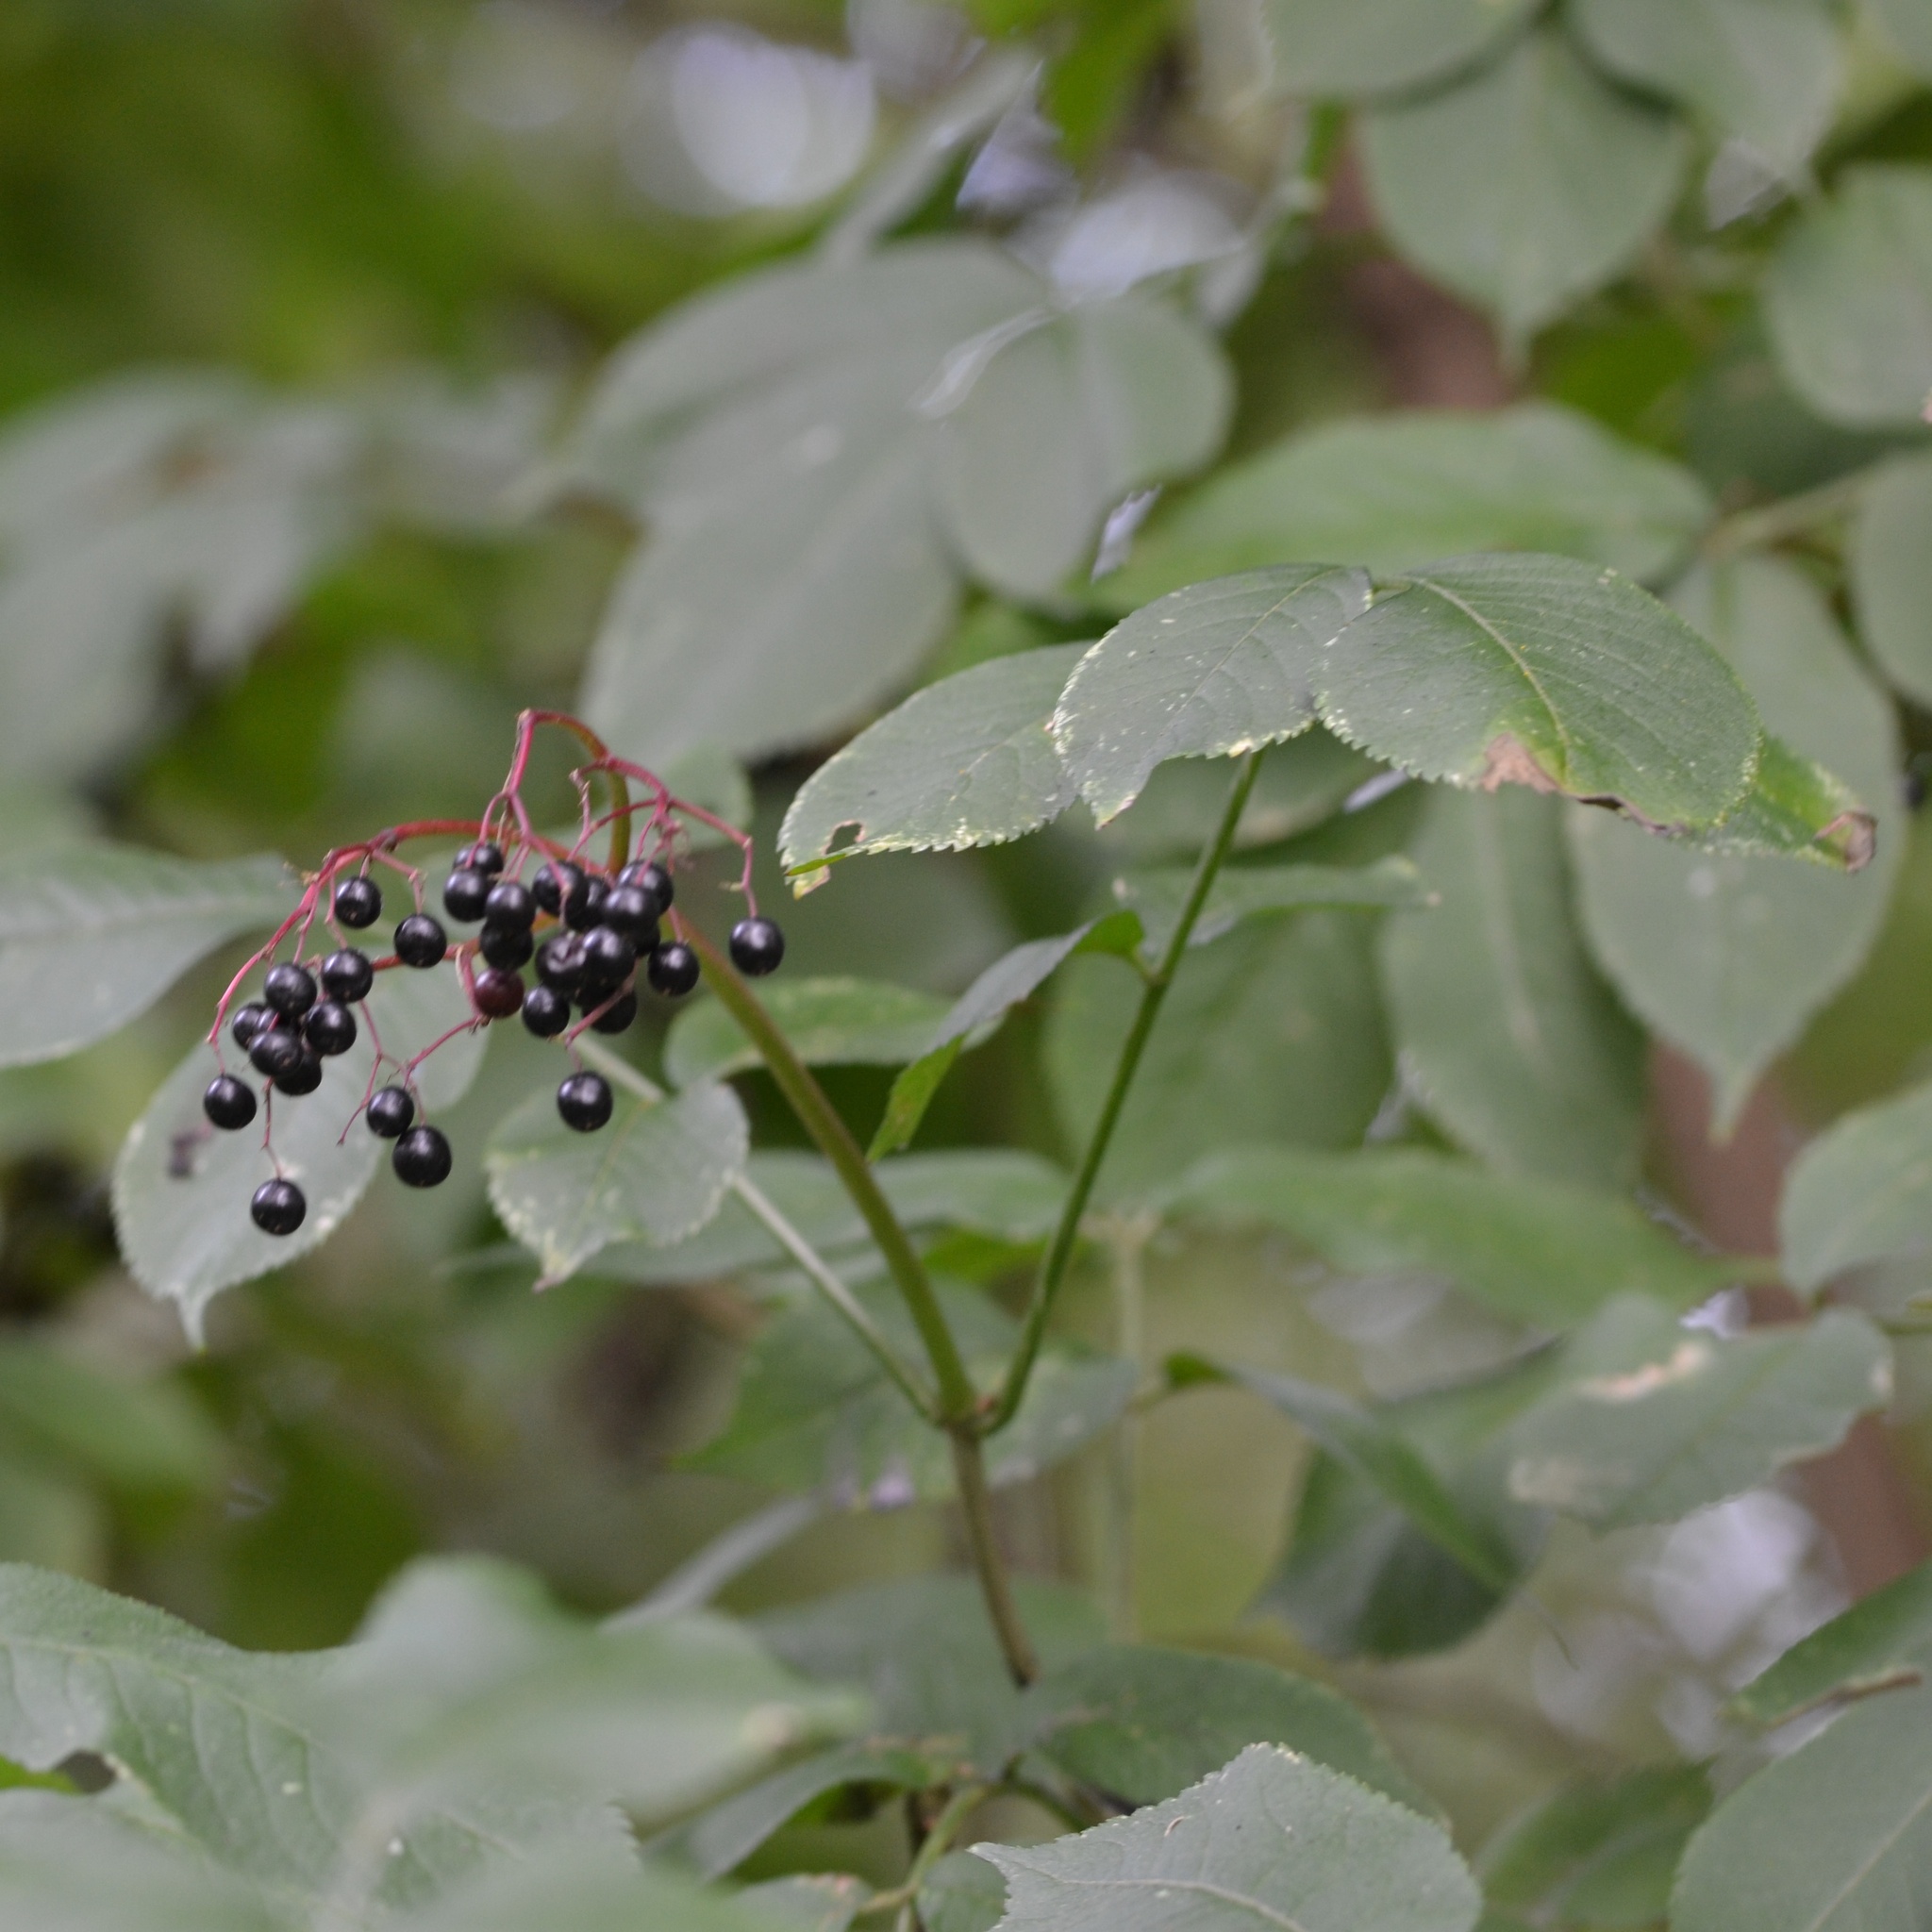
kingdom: Plantae
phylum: Tracheophyta
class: Magnoliopsida
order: Dipsacales
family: Viburnaceae
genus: Sambucus
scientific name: Sambucus nigra
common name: Elder
